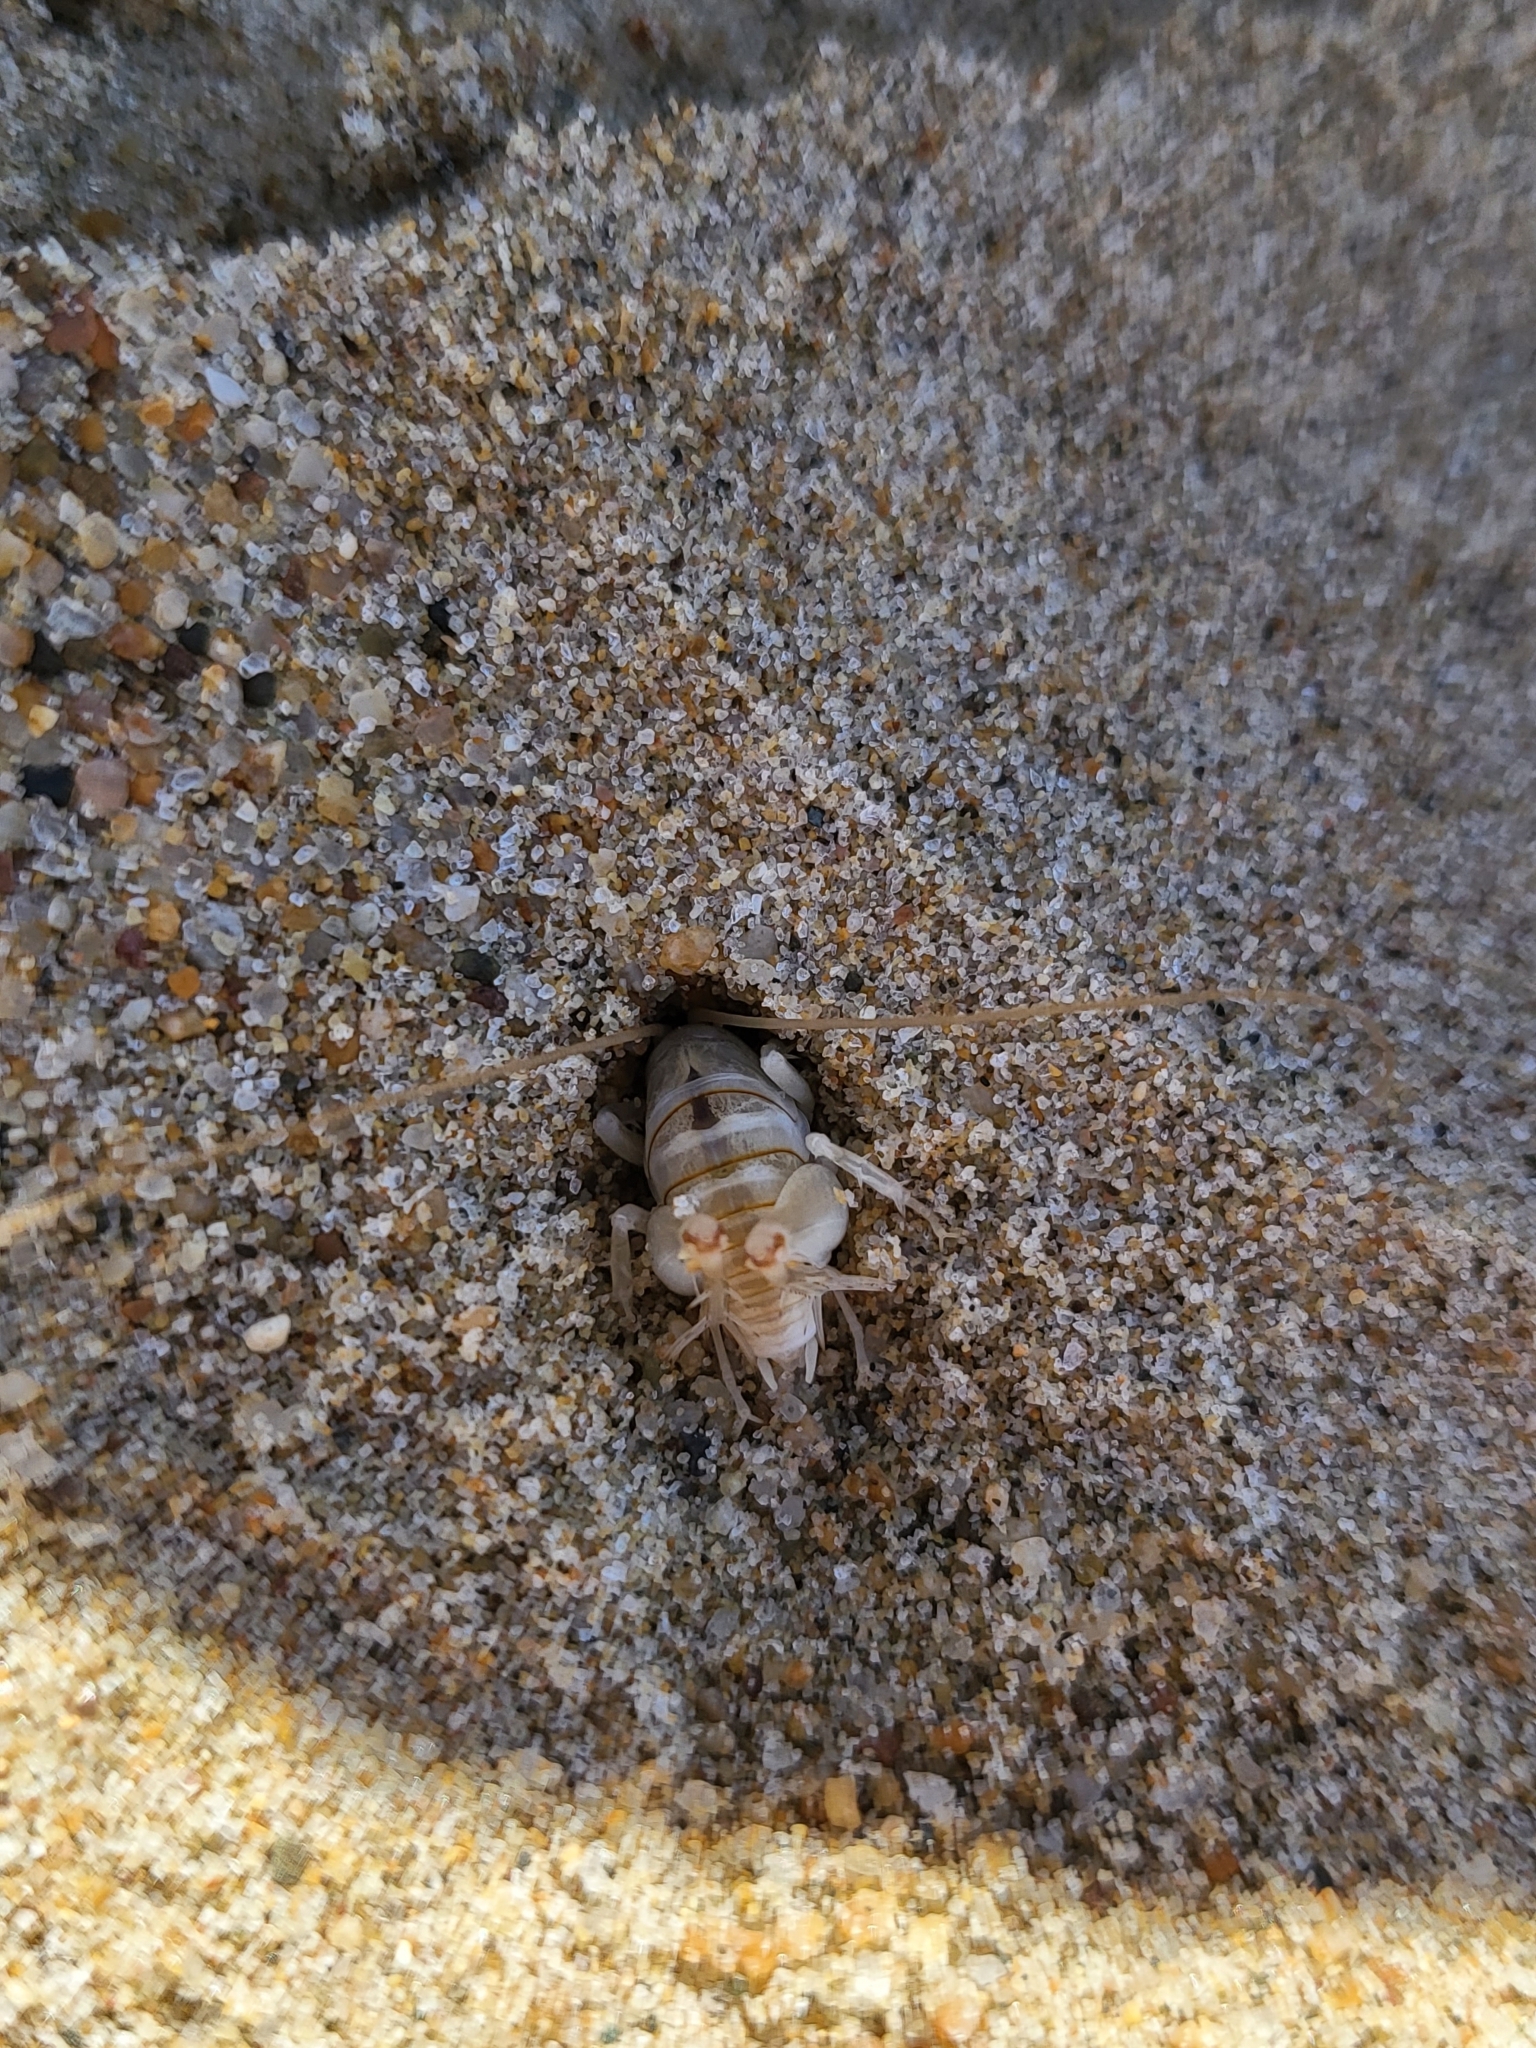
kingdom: Animalia
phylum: Arthropoda
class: Insecta
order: Orthoptera
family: Rhaphidophoridae
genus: Rhachocnemis
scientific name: Rhachocnemis validus
